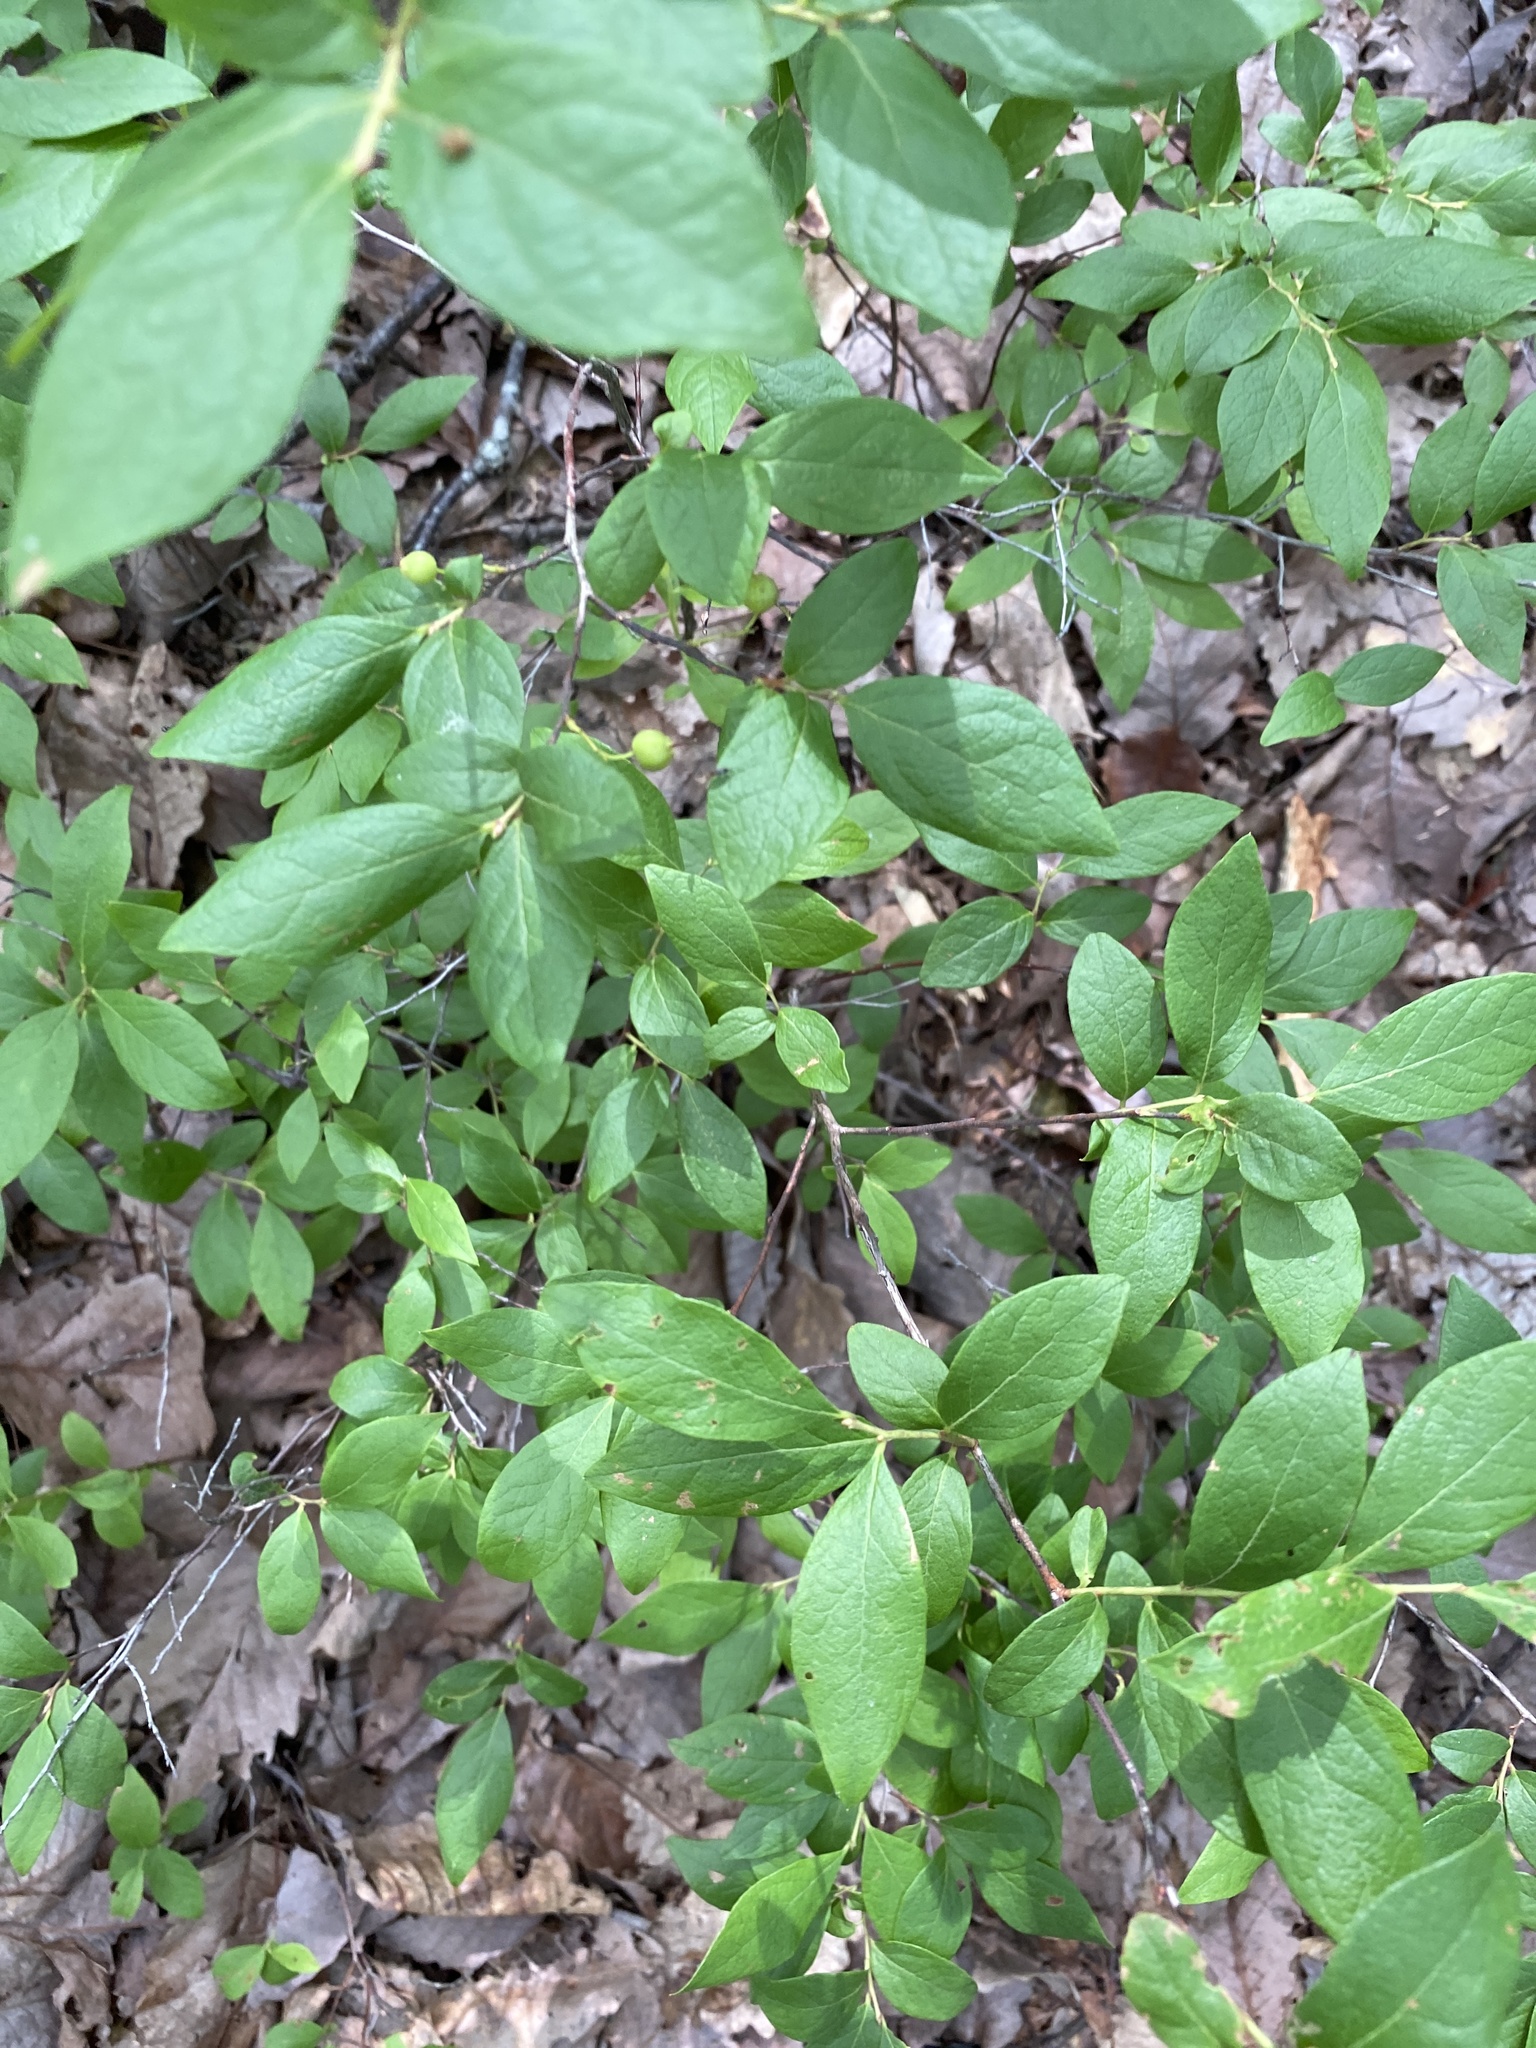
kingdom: Plantae
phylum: Tracheophyta
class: Magnoliopsida
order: Ericales
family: Ericaceae
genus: Gaylussacia
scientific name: Gaylussacia baccata
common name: Black huckleberry
